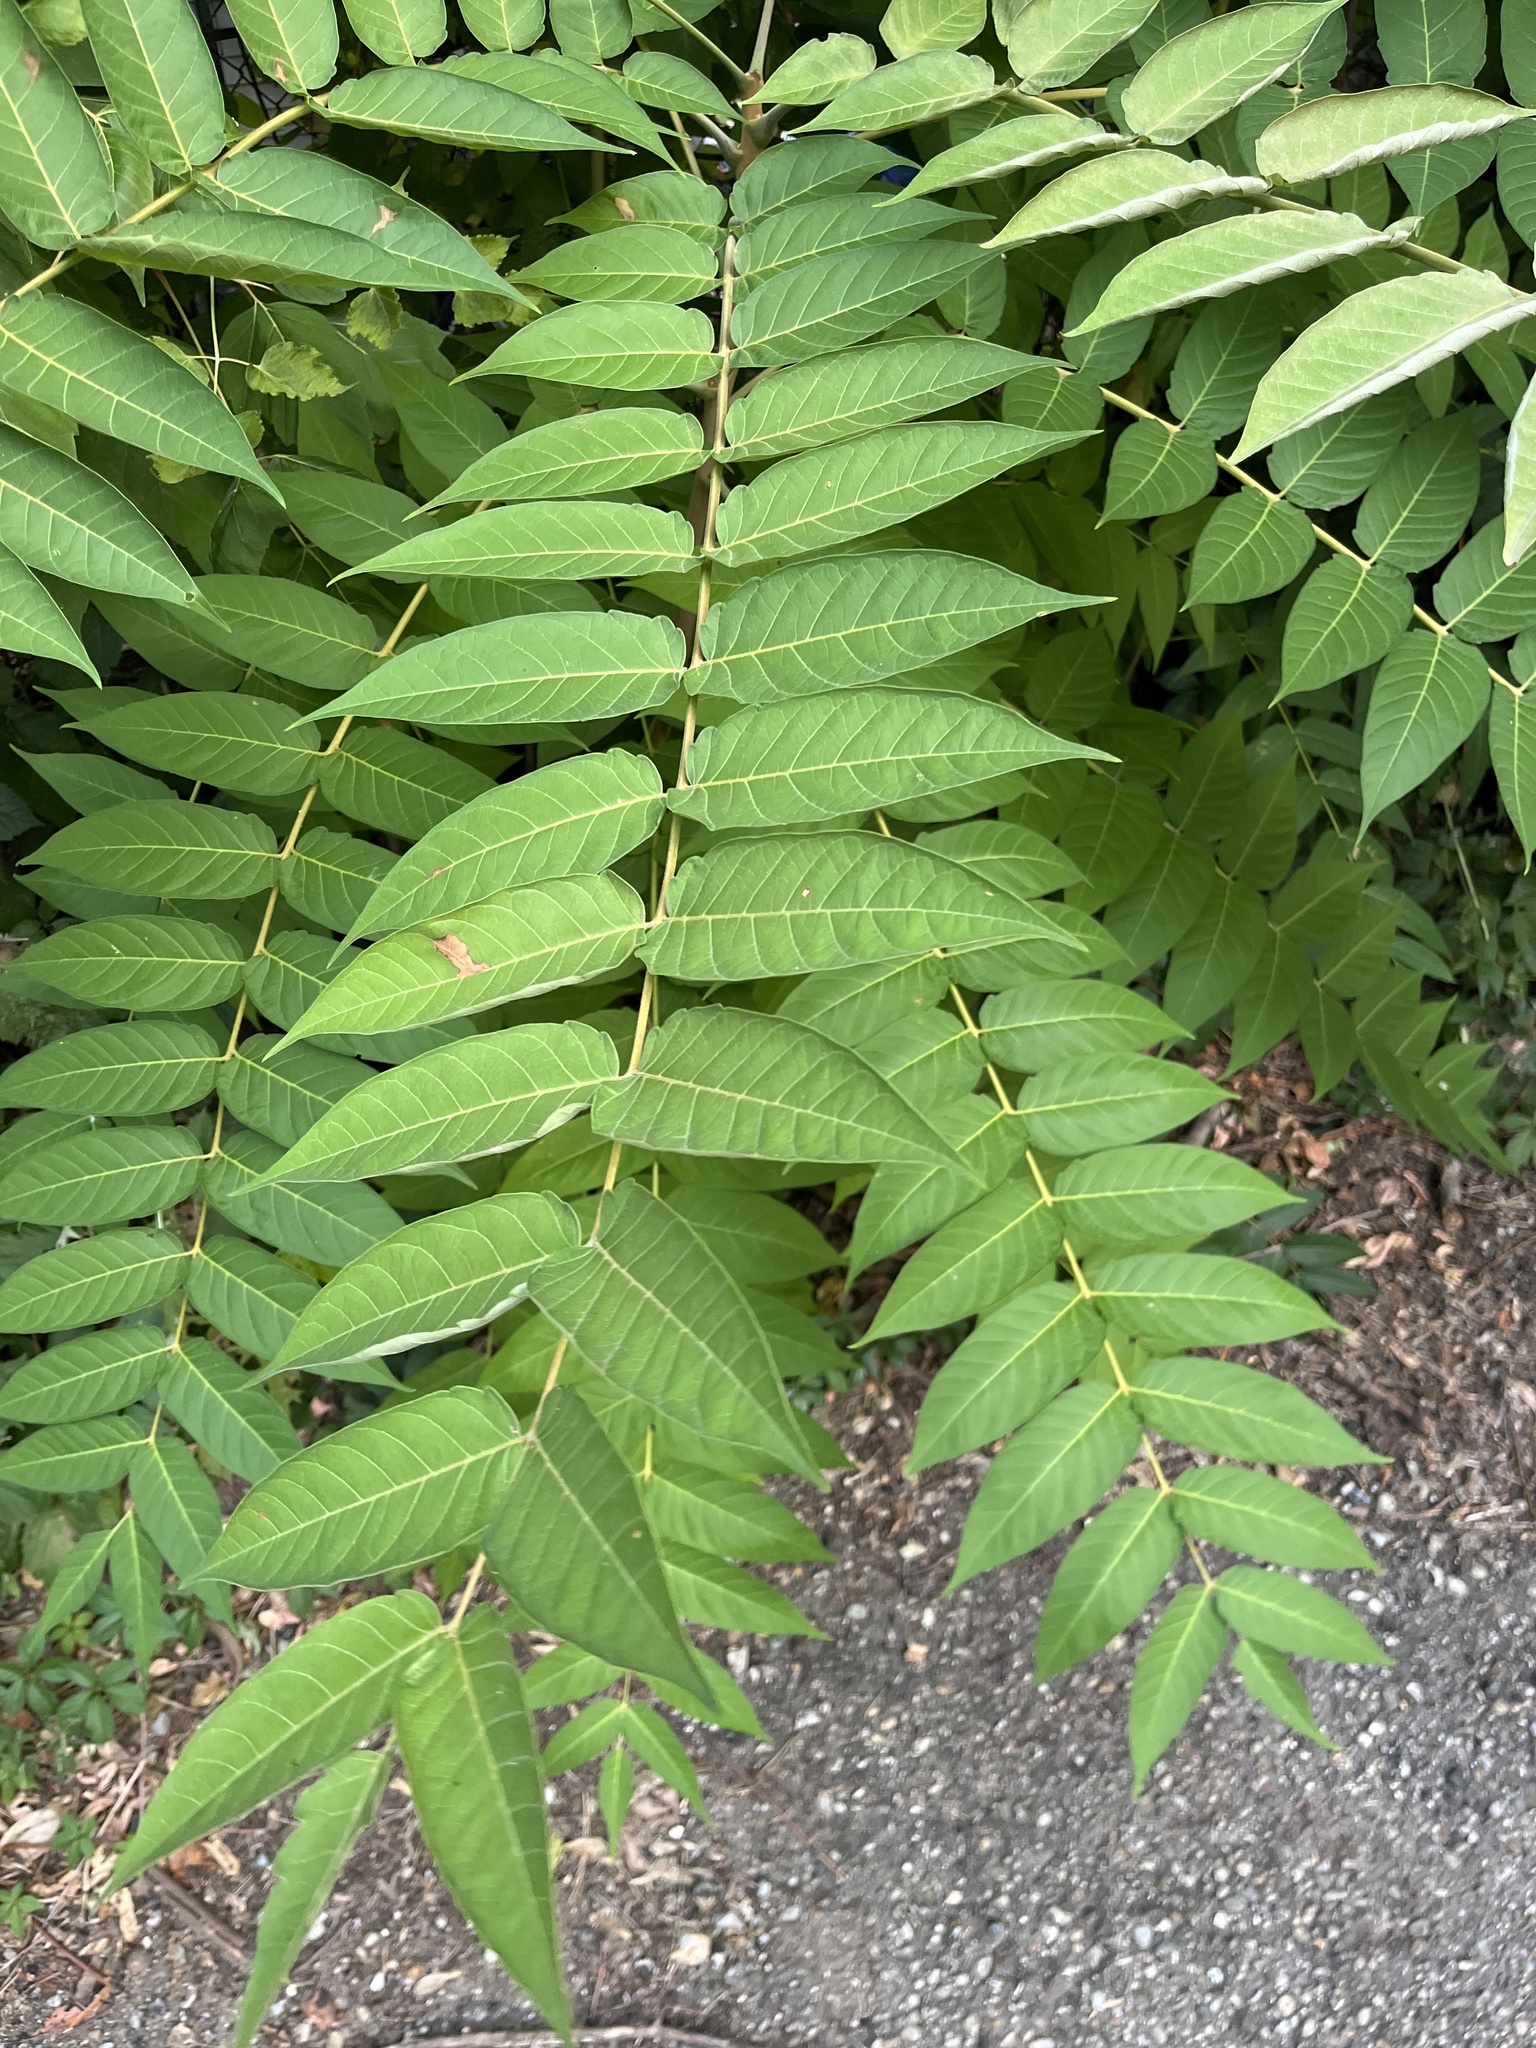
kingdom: Plantae
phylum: Tracheophyta
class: Magnoliopsida
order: Sapindales
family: Simaroubaceae
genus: Ailanthus
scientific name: Ailanthus altissima
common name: Tree-of-heaven
